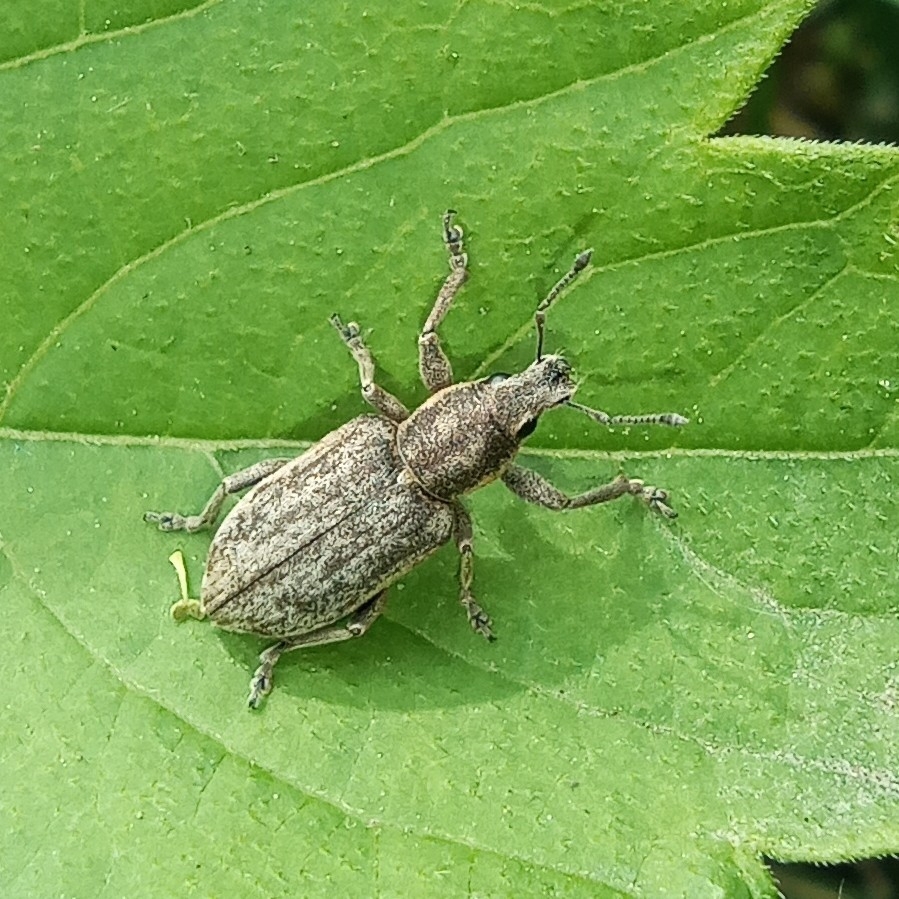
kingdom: Animalia
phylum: Arthropoda
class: Insecta
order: Coleoptera
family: Curculionidae
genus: Tanymecus
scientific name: Tanymecus palliatus
